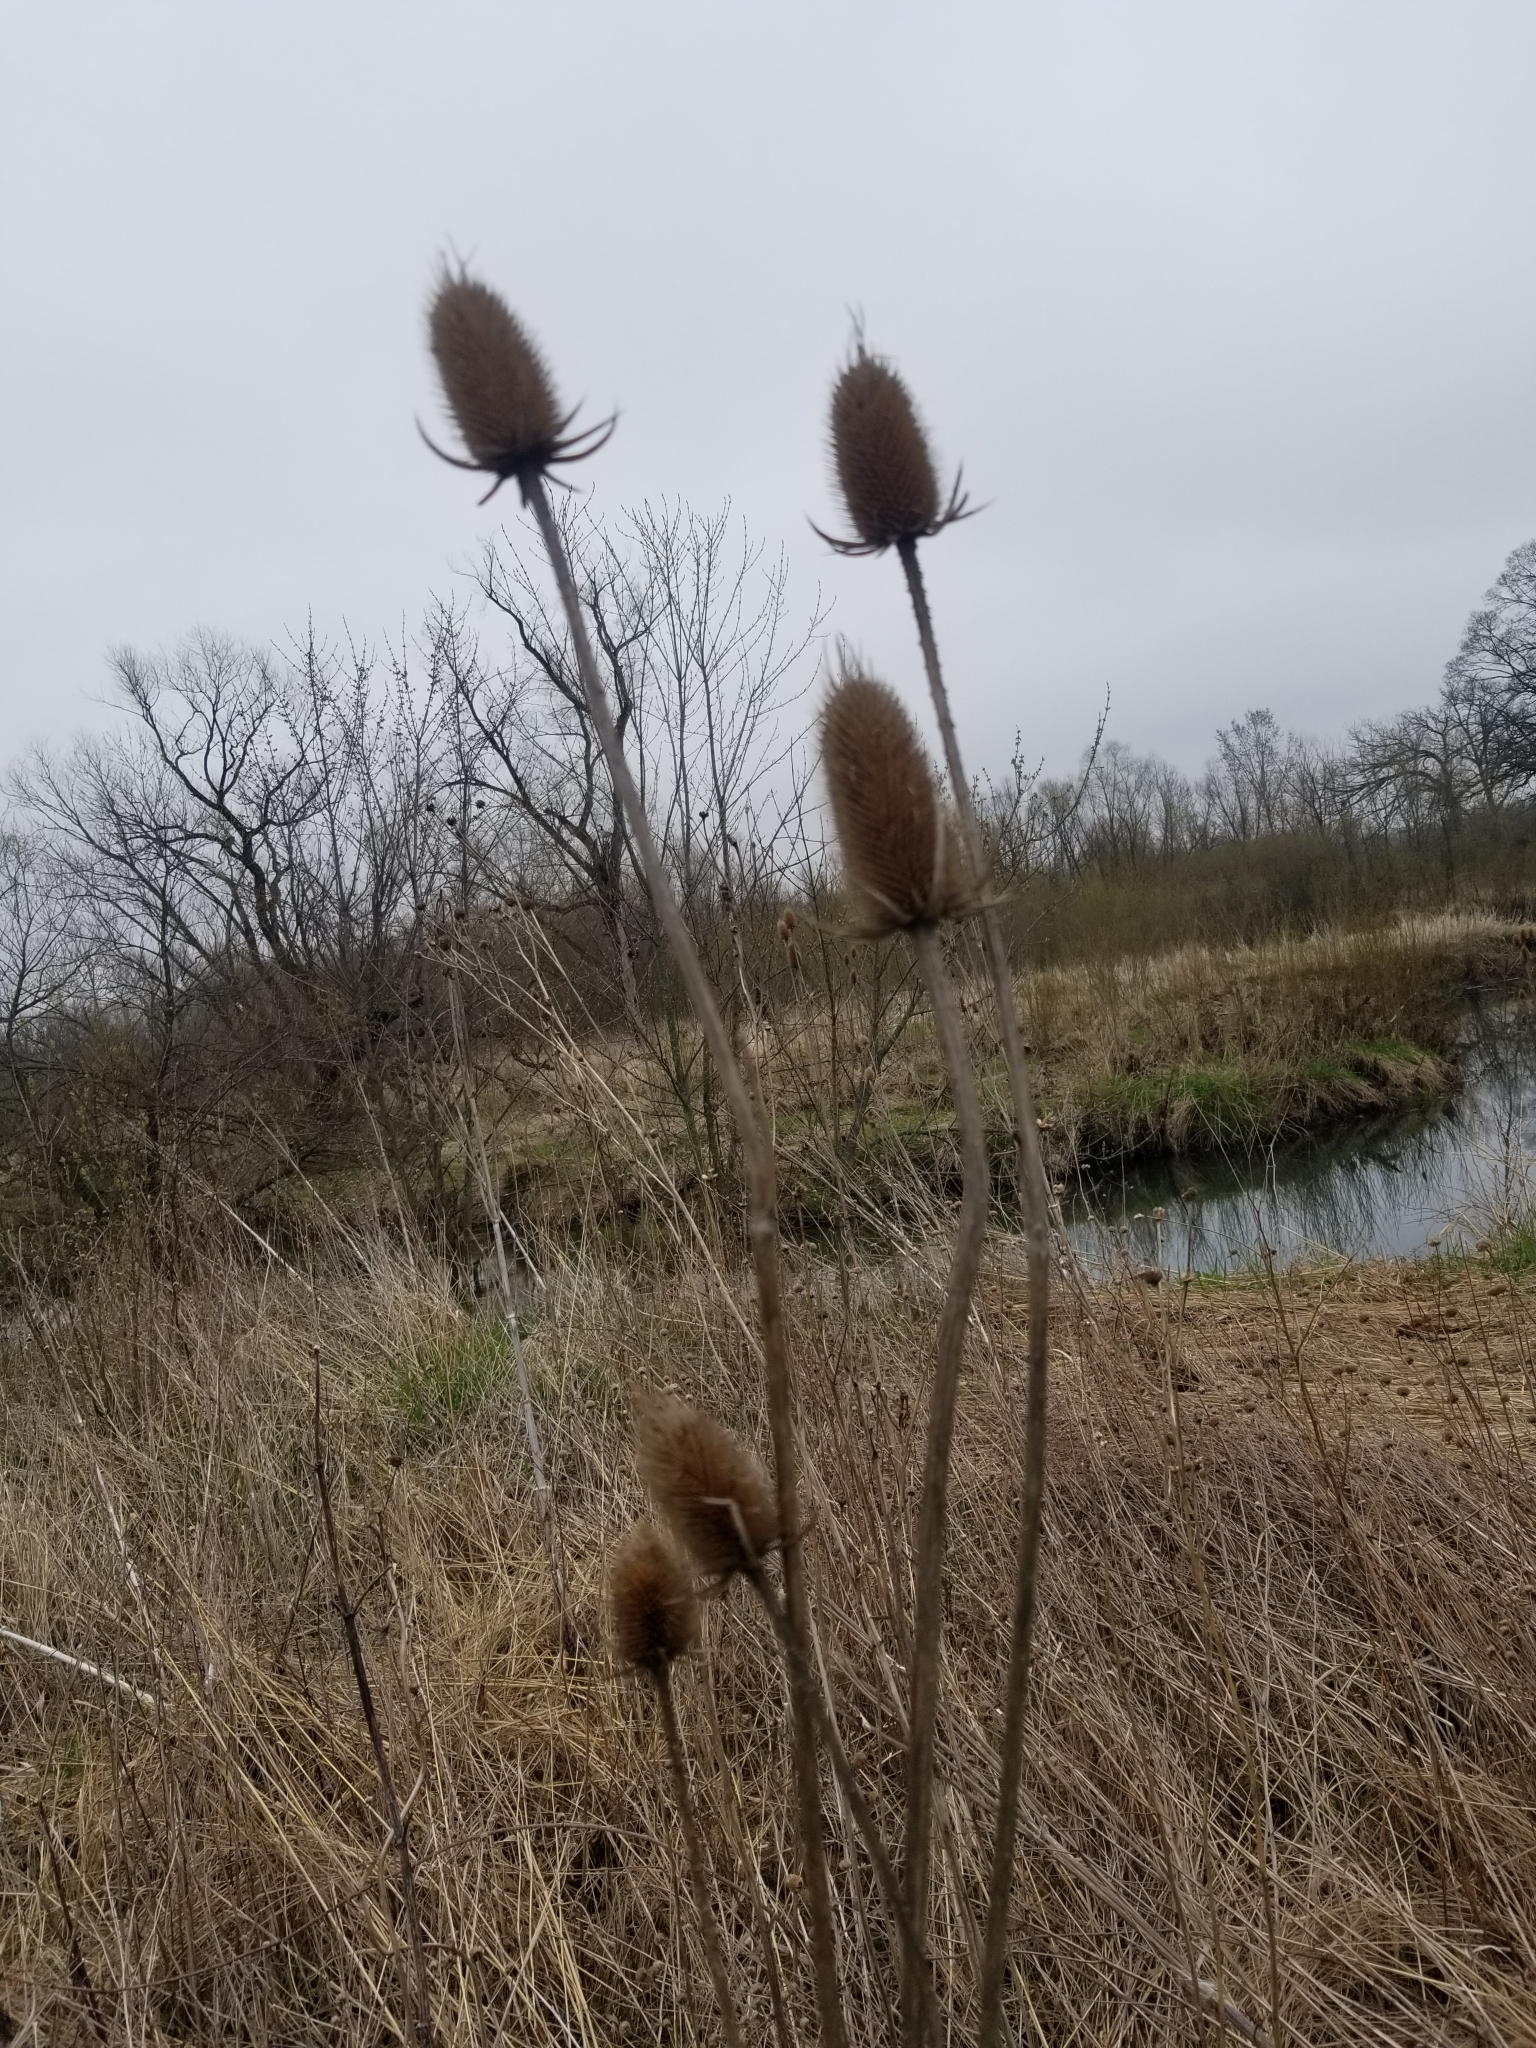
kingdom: Plantae
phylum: Tracheophyta
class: Magnoliopsida
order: Dipsacales
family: Caprifoliaceae
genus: Dipsacus
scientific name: Dipsacus laciniatus
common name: Cut-leaved teasel
